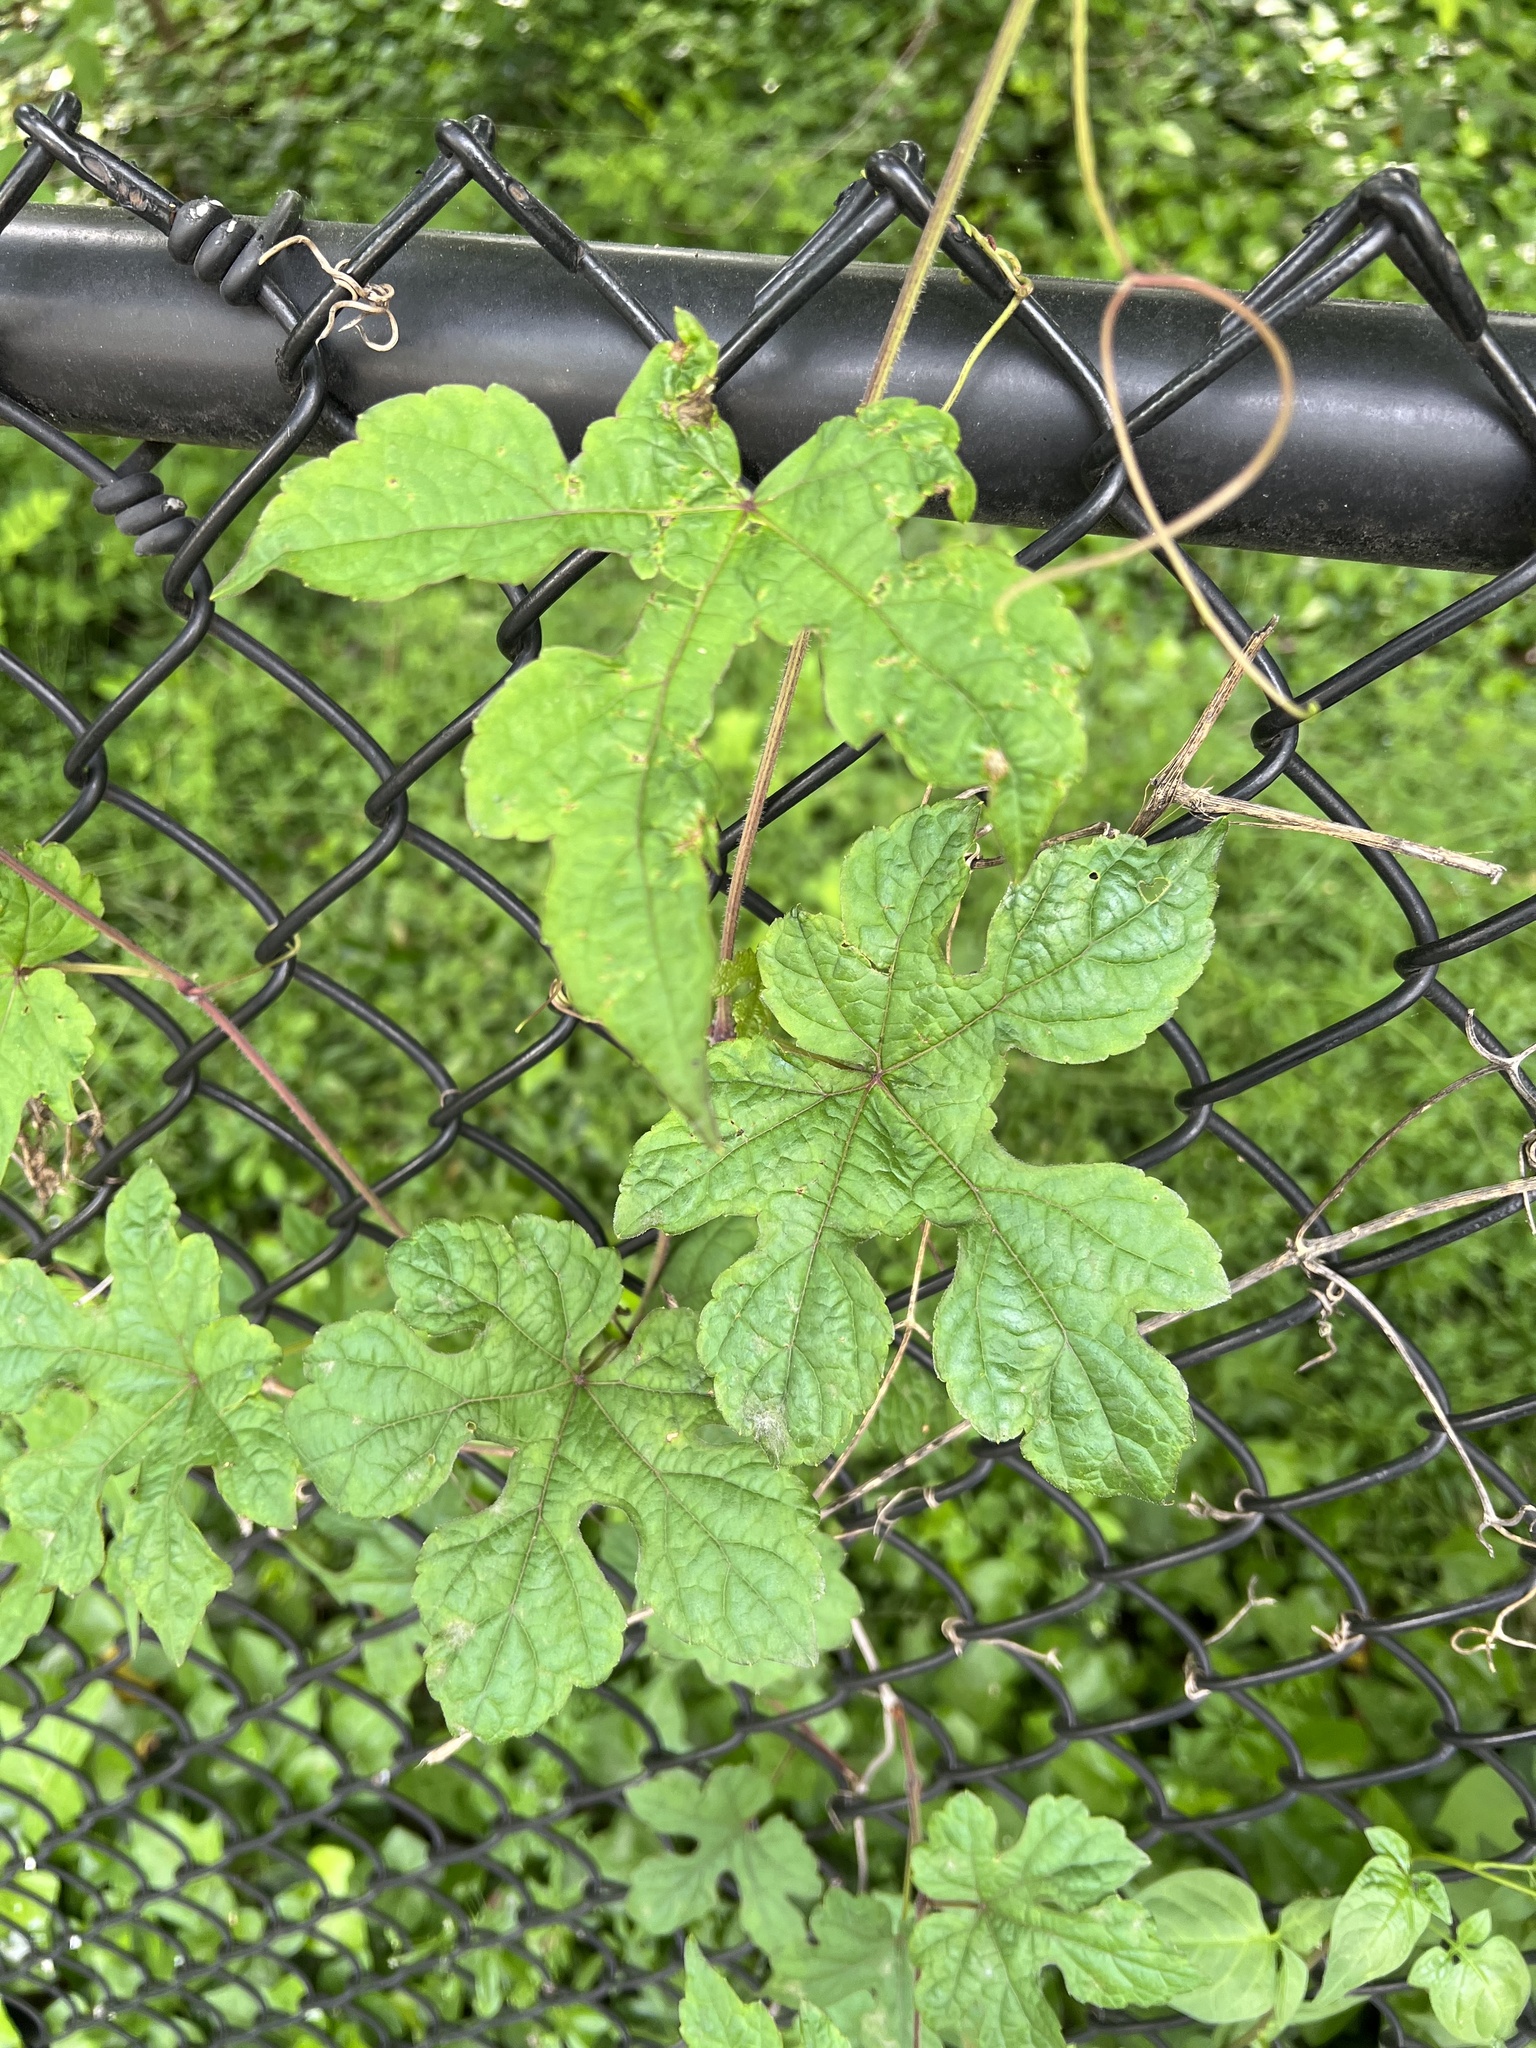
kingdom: Plantae
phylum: Tracheophyta
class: Magnoliopsida
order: Vitales
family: Vitaceae
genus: Ampelopsis
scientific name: Ampelopsis glandulosa
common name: Amur peppervine
